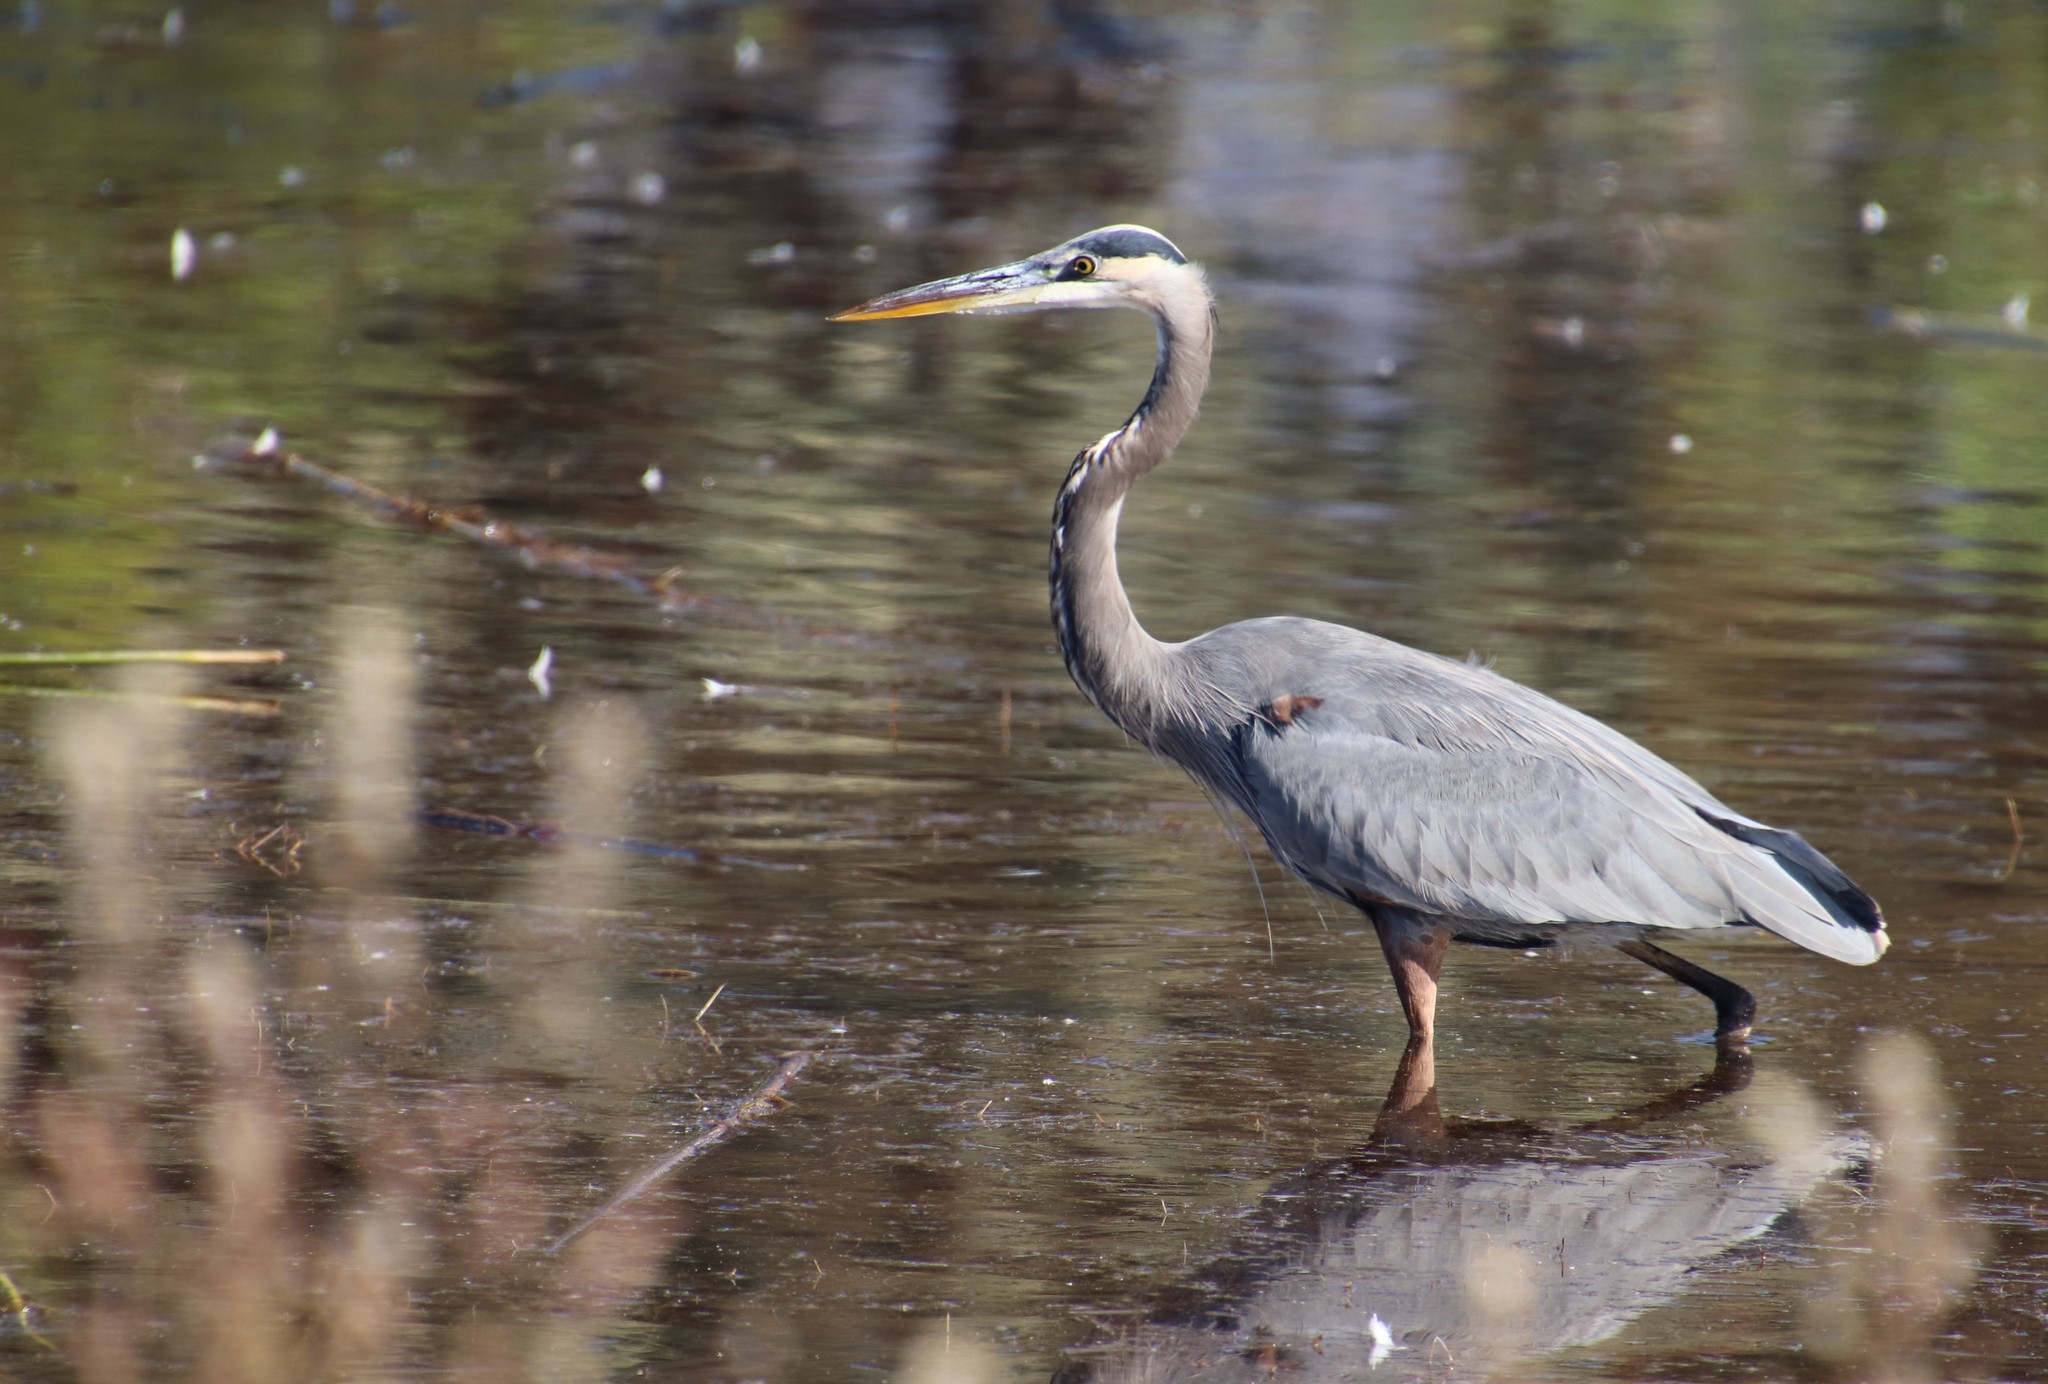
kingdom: Animalia
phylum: Chordata
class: Aves
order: Pelecaniformes
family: Ardeidae
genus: Ardea
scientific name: Ardea herodias
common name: Great blue heron
